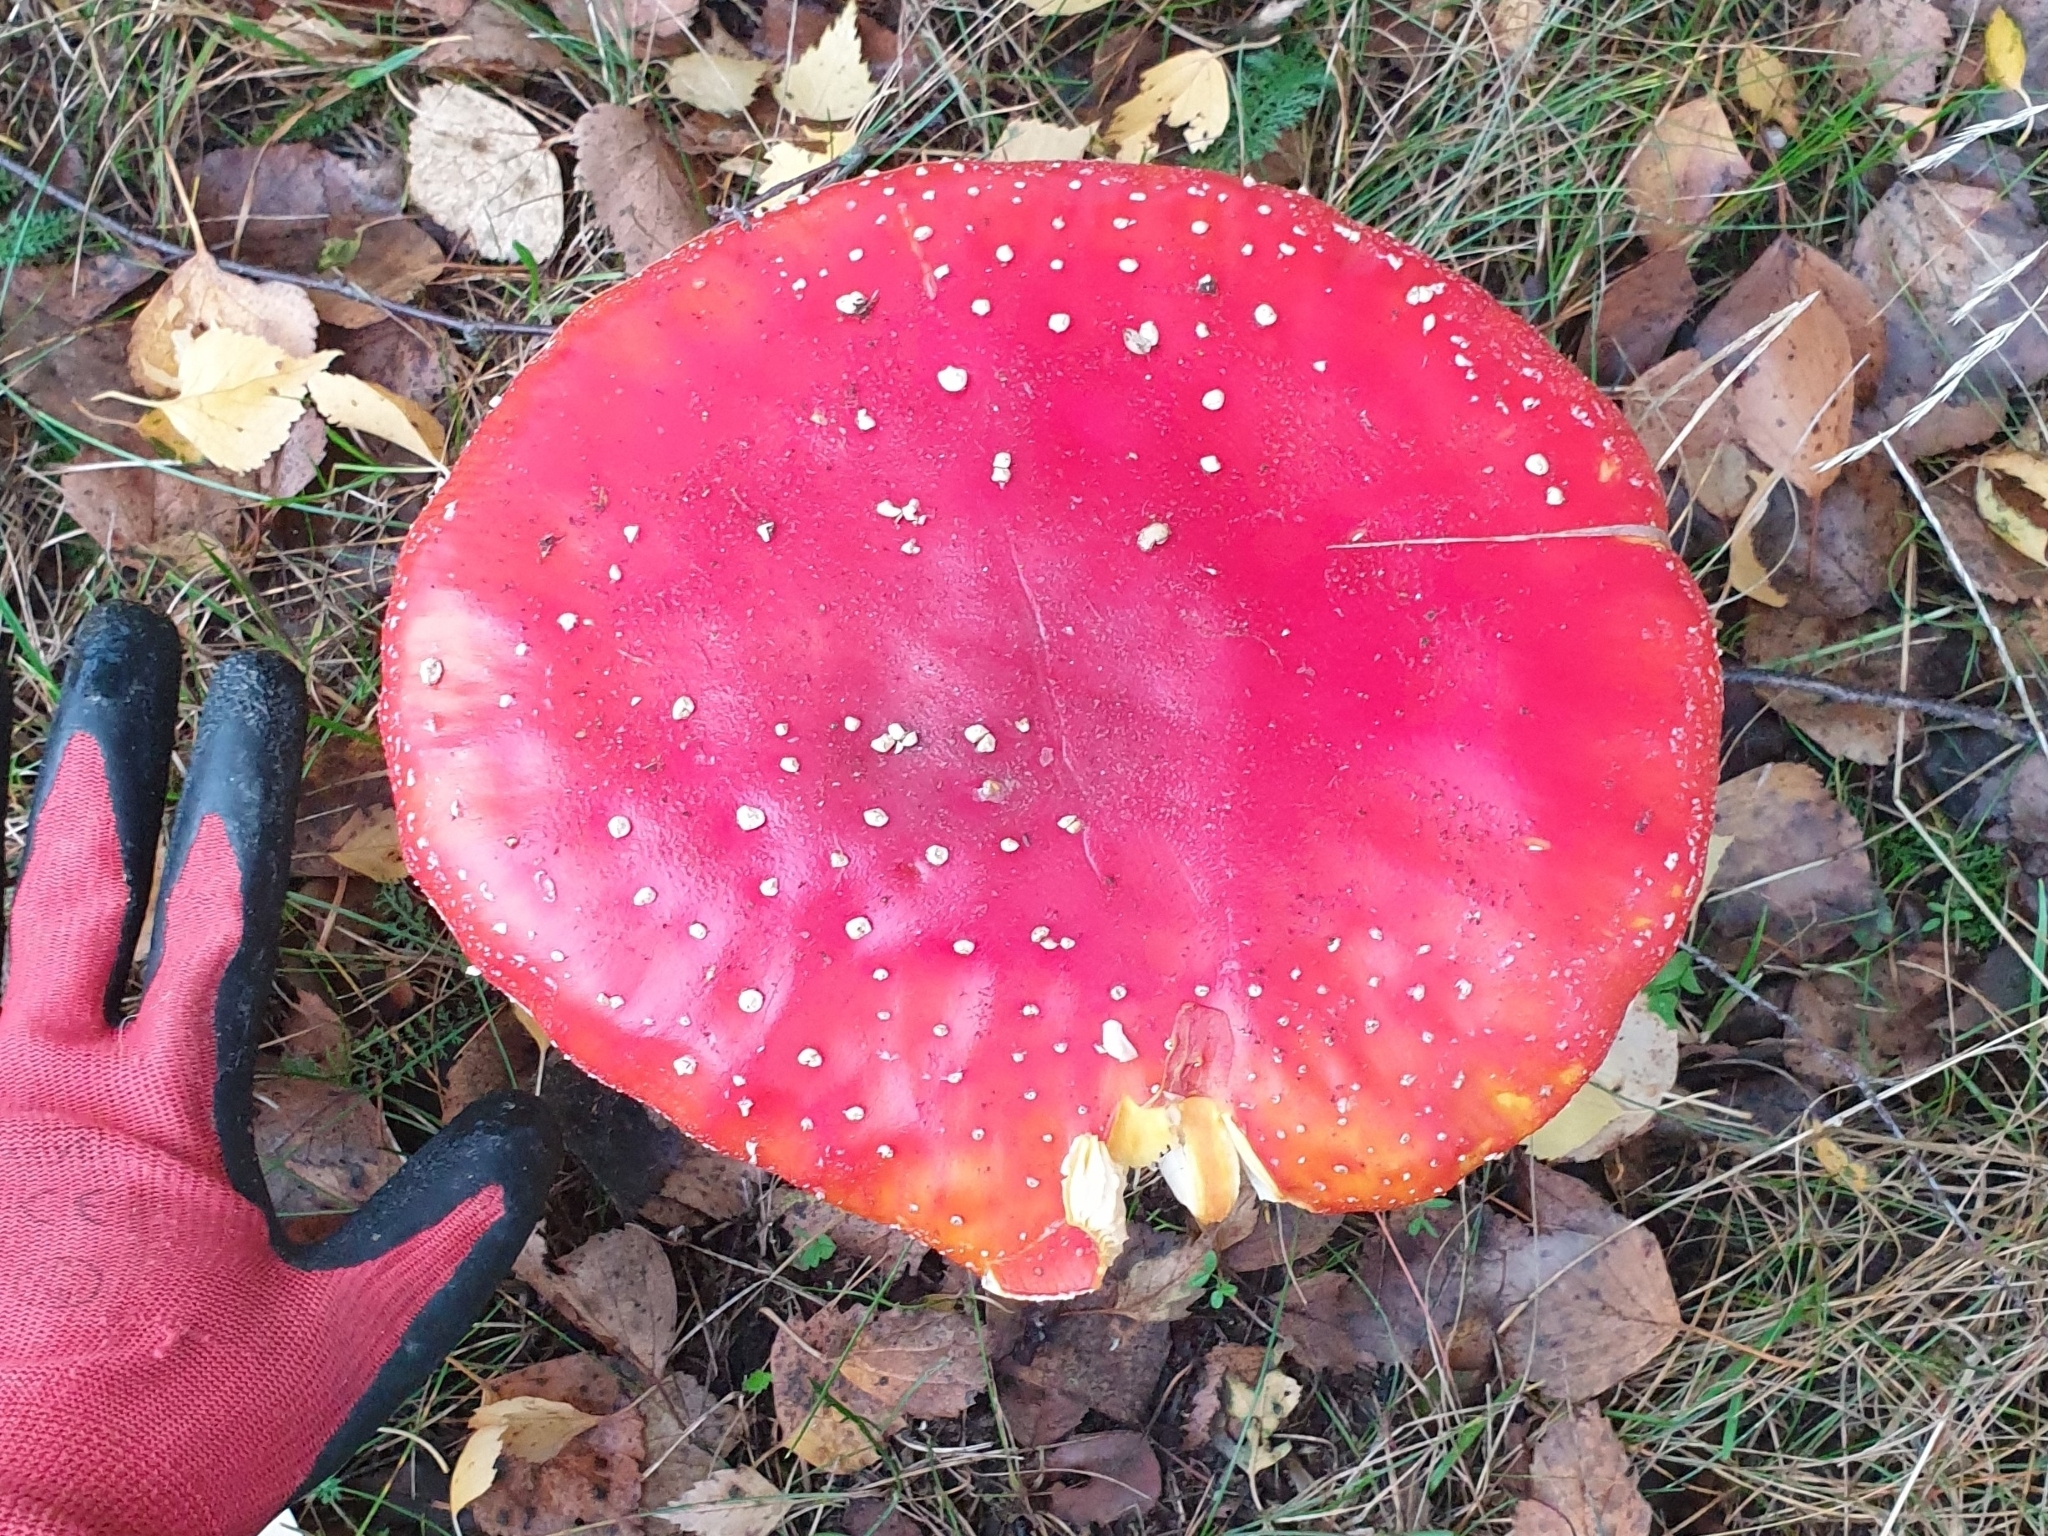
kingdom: Fungi
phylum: Basidiomycota
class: Agaricomycetes
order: Agaricales
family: Amanitaceae
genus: Amanita
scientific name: Amanita muscaria
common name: Fly agaric
